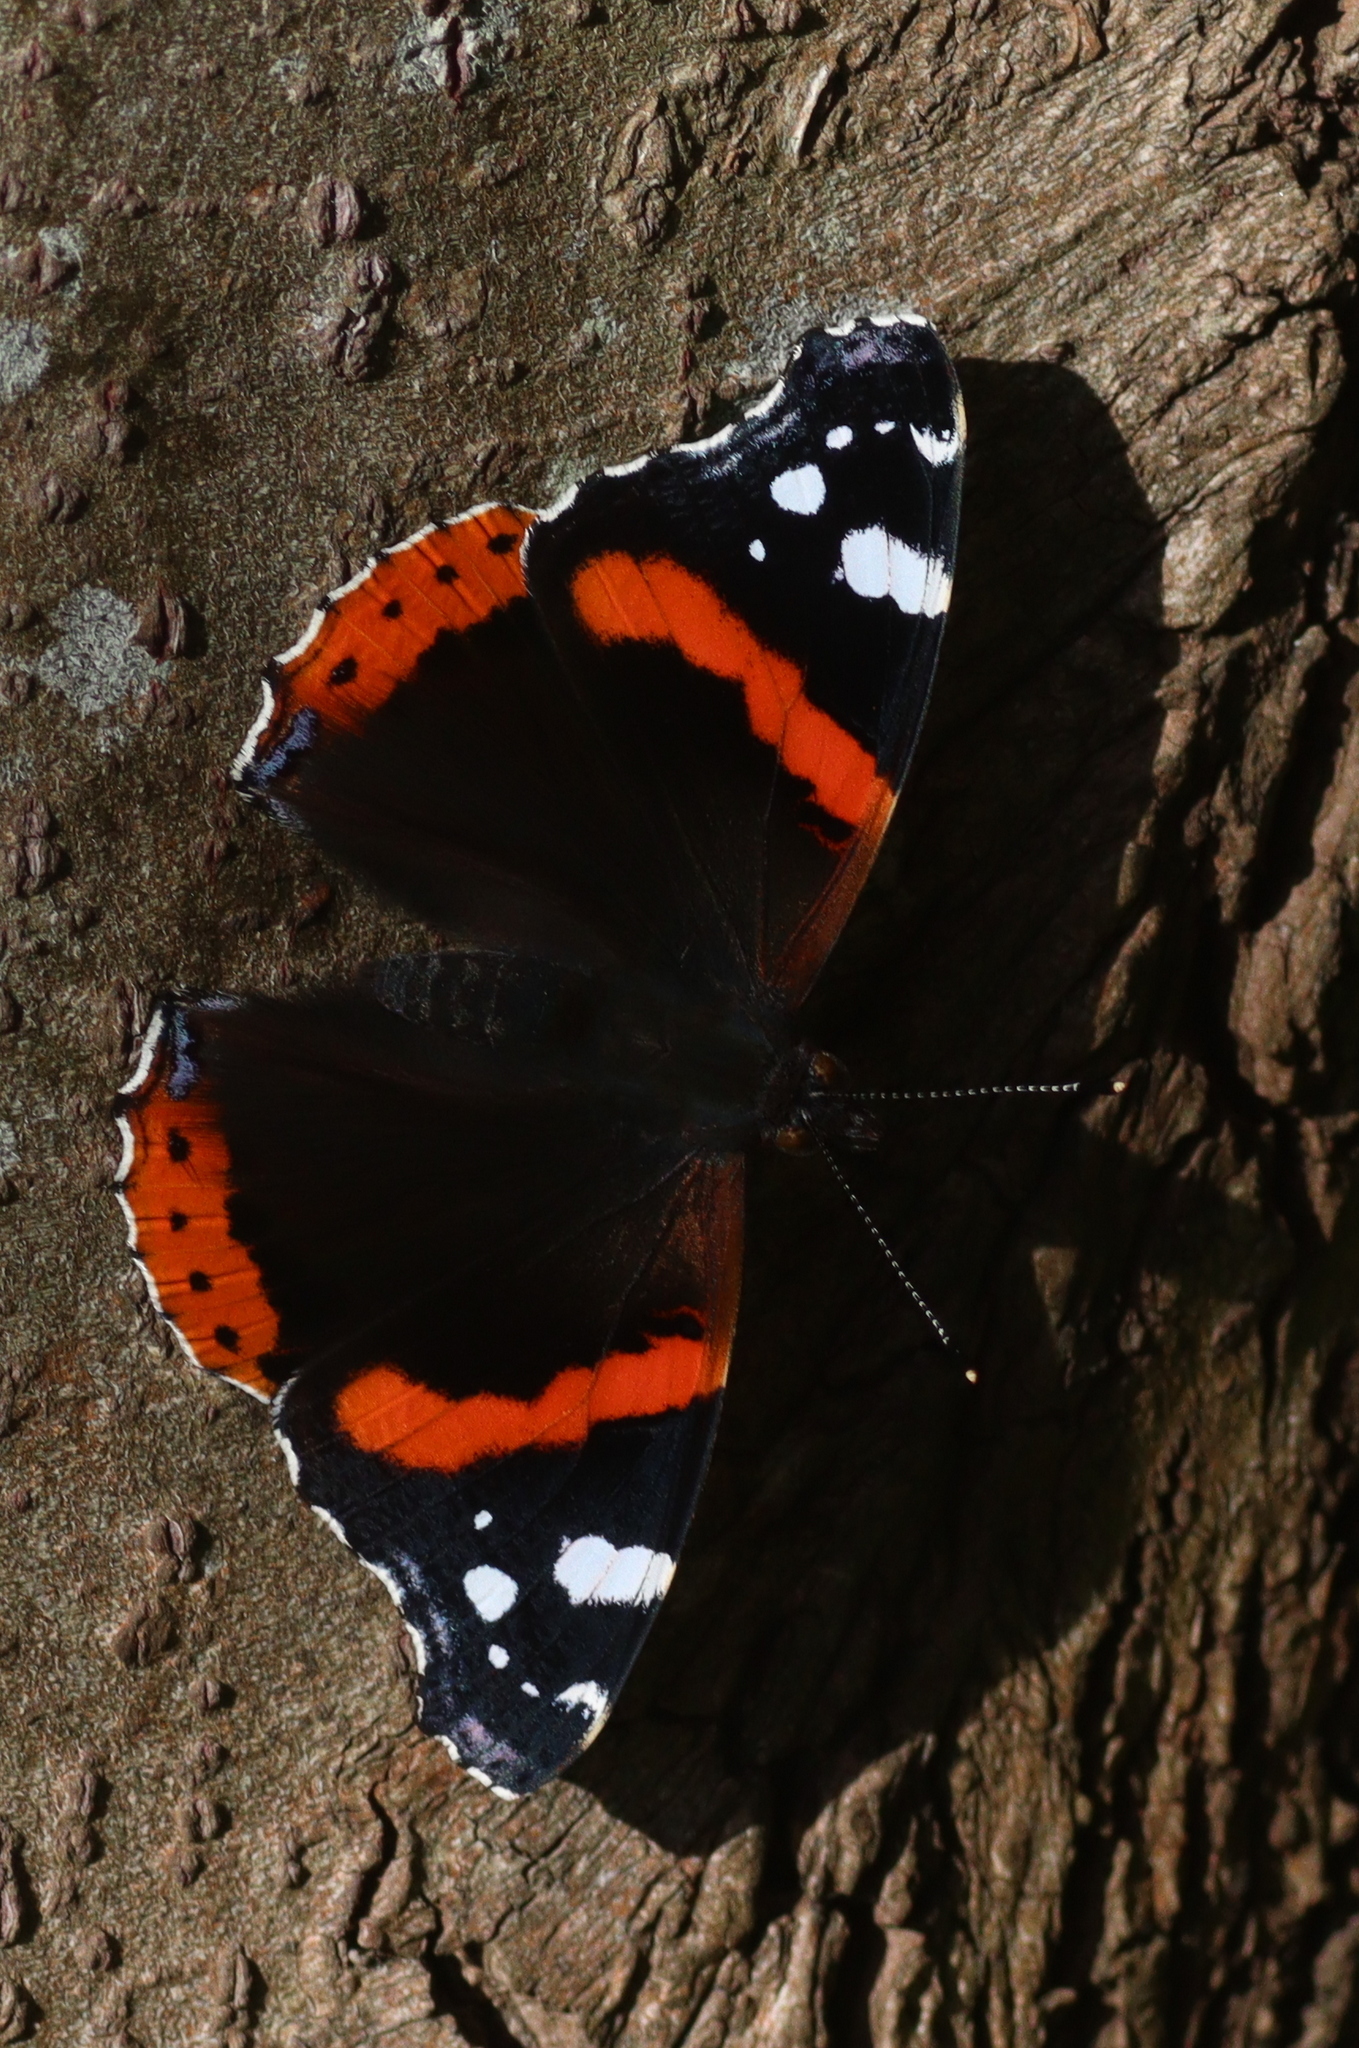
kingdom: Animalia
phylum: Arthropoda
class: Insecta
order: Lepidoptera
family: Nymphalidae
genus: Vanessa
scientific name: Vanessa atalanta
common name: Red admiral
